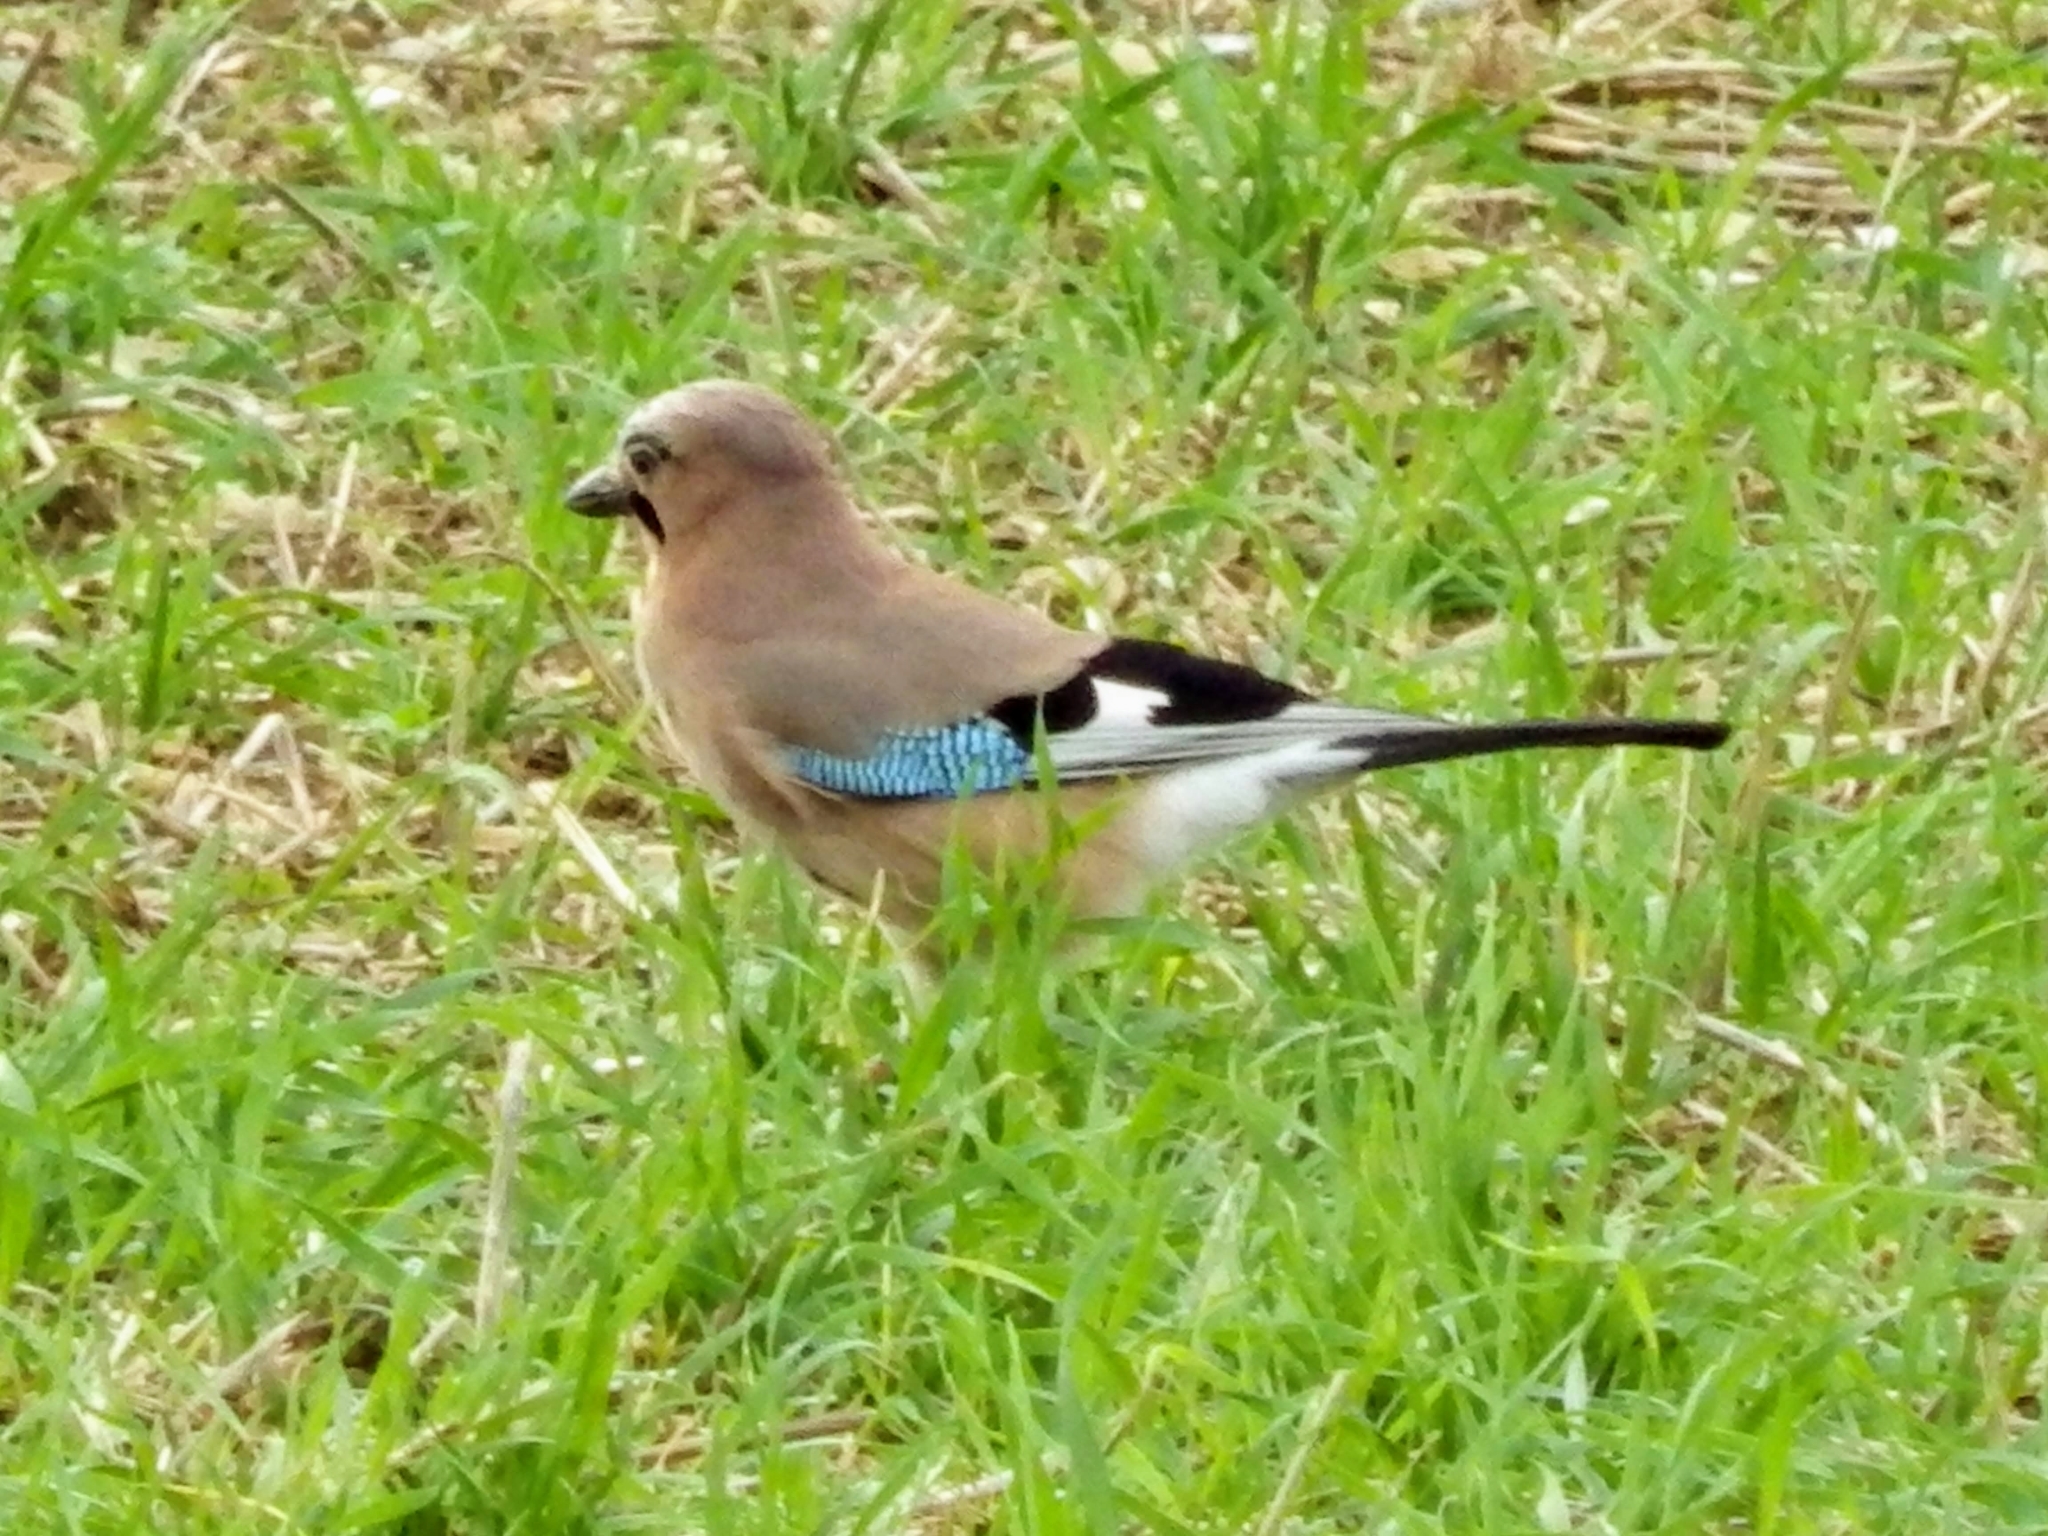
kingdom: Animalia
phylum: Chordata
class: Aves
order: Passeriformes
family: Corvidae
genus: Garrulus
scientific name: Garrulus glandarius
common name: Eurasian jay
